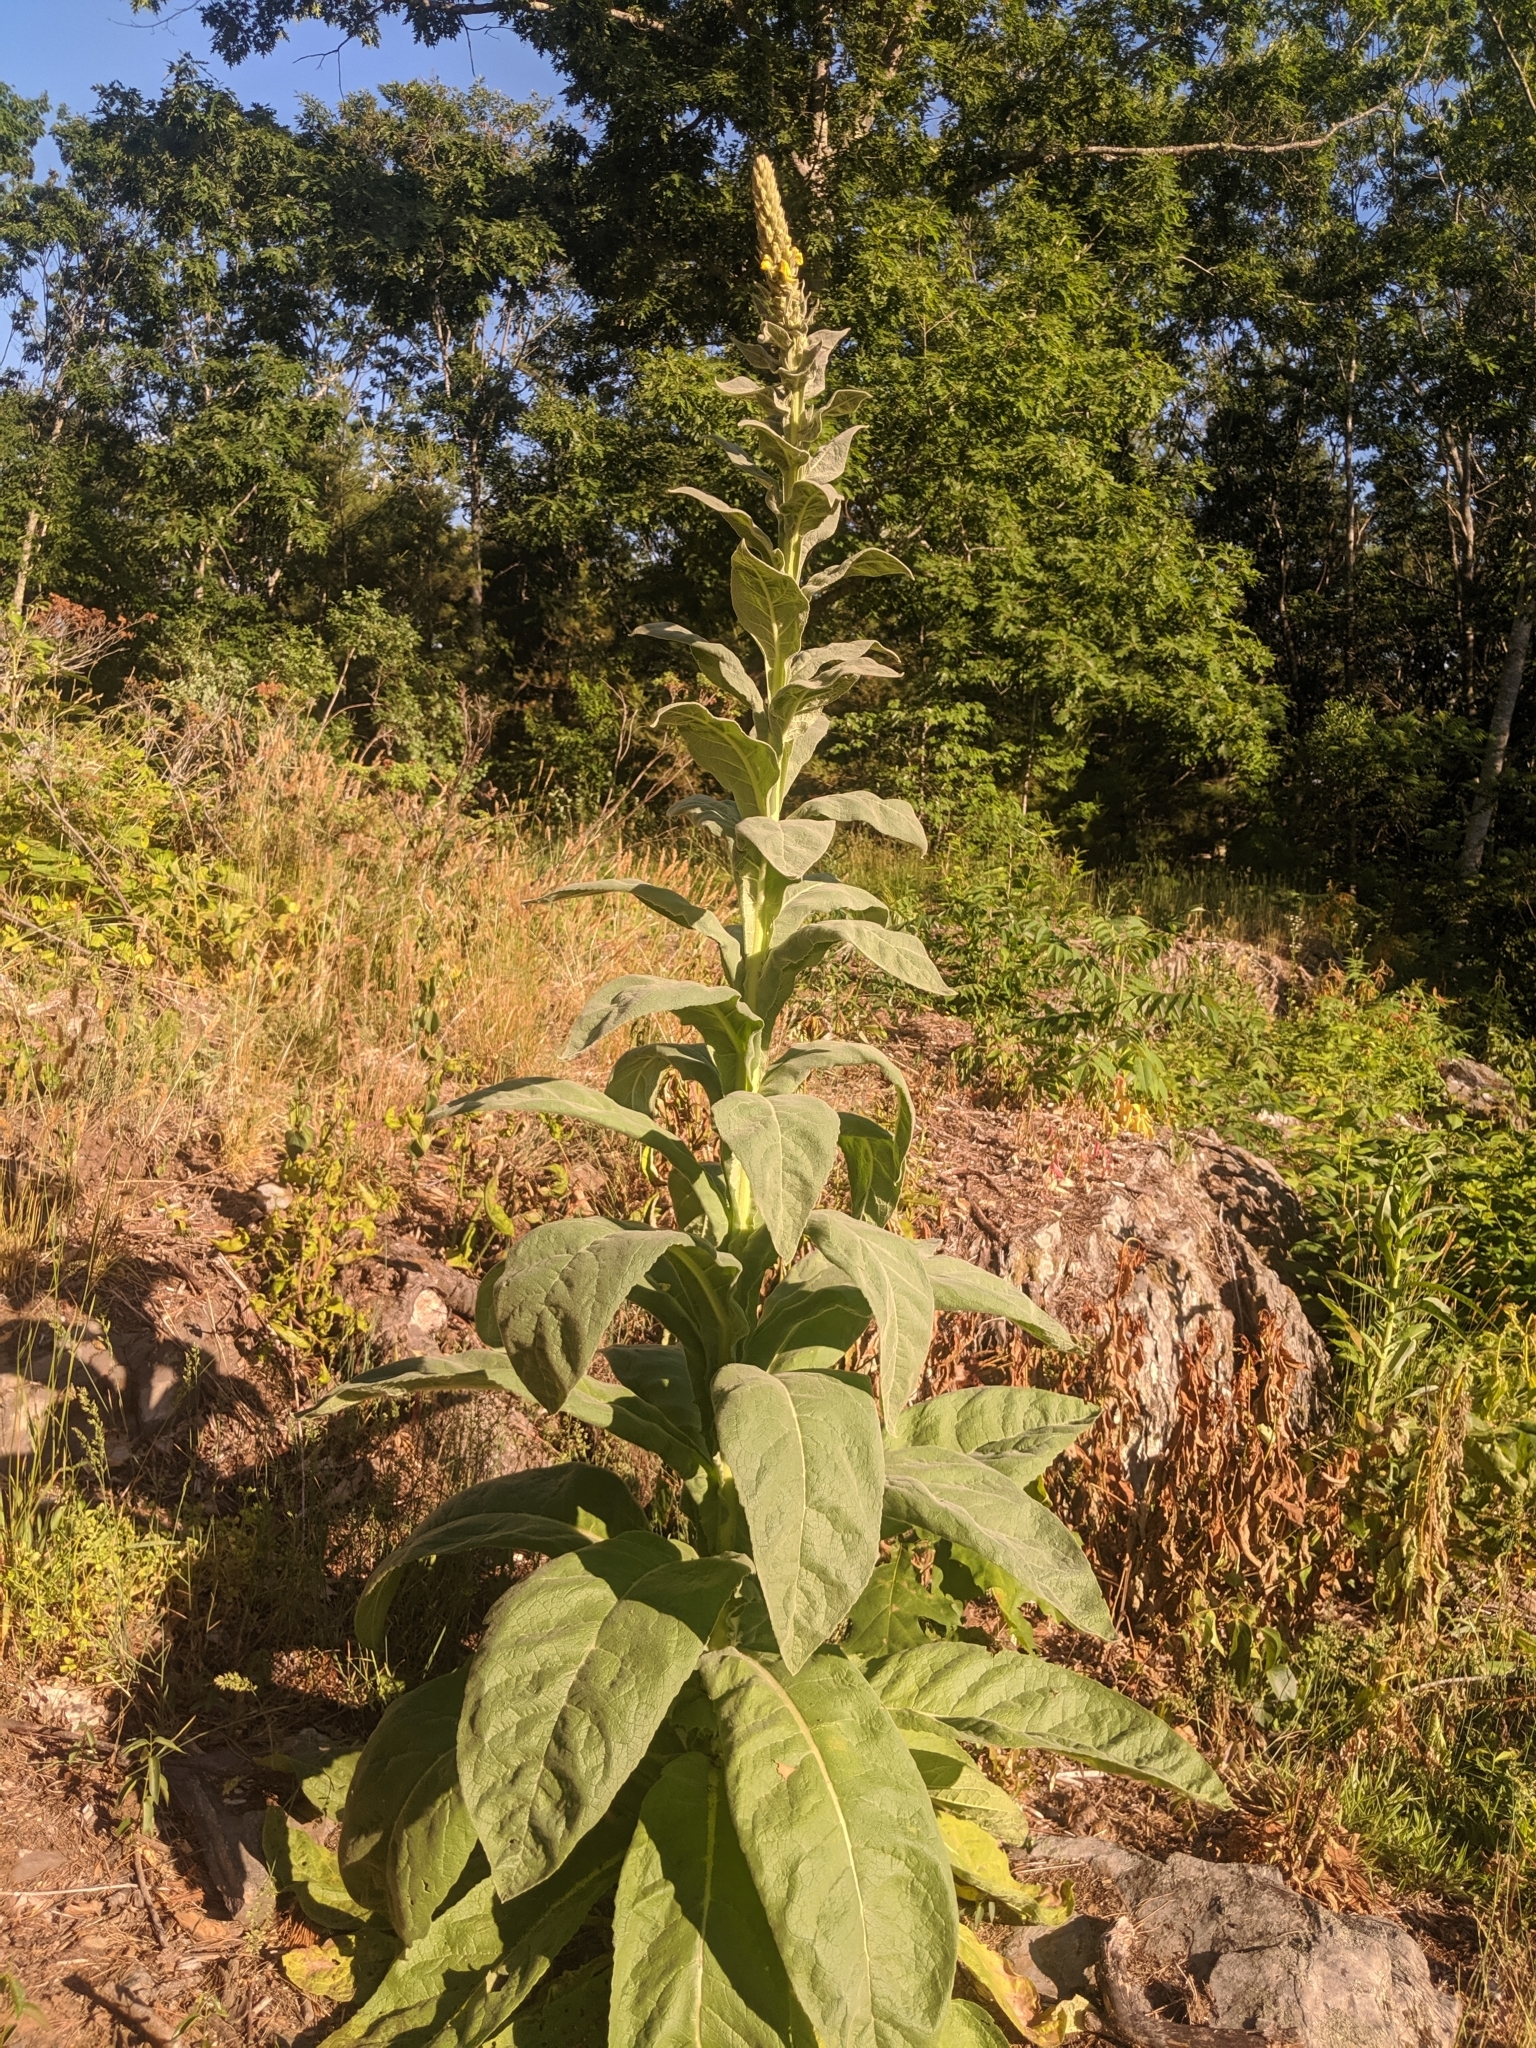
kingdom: Plantae
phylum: Tracheophyta
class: Magnoliopsida
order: Lamiales
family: Scrophulariaceae
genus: Verbascum
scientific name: Verbascum thapsus
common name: Common mullein
